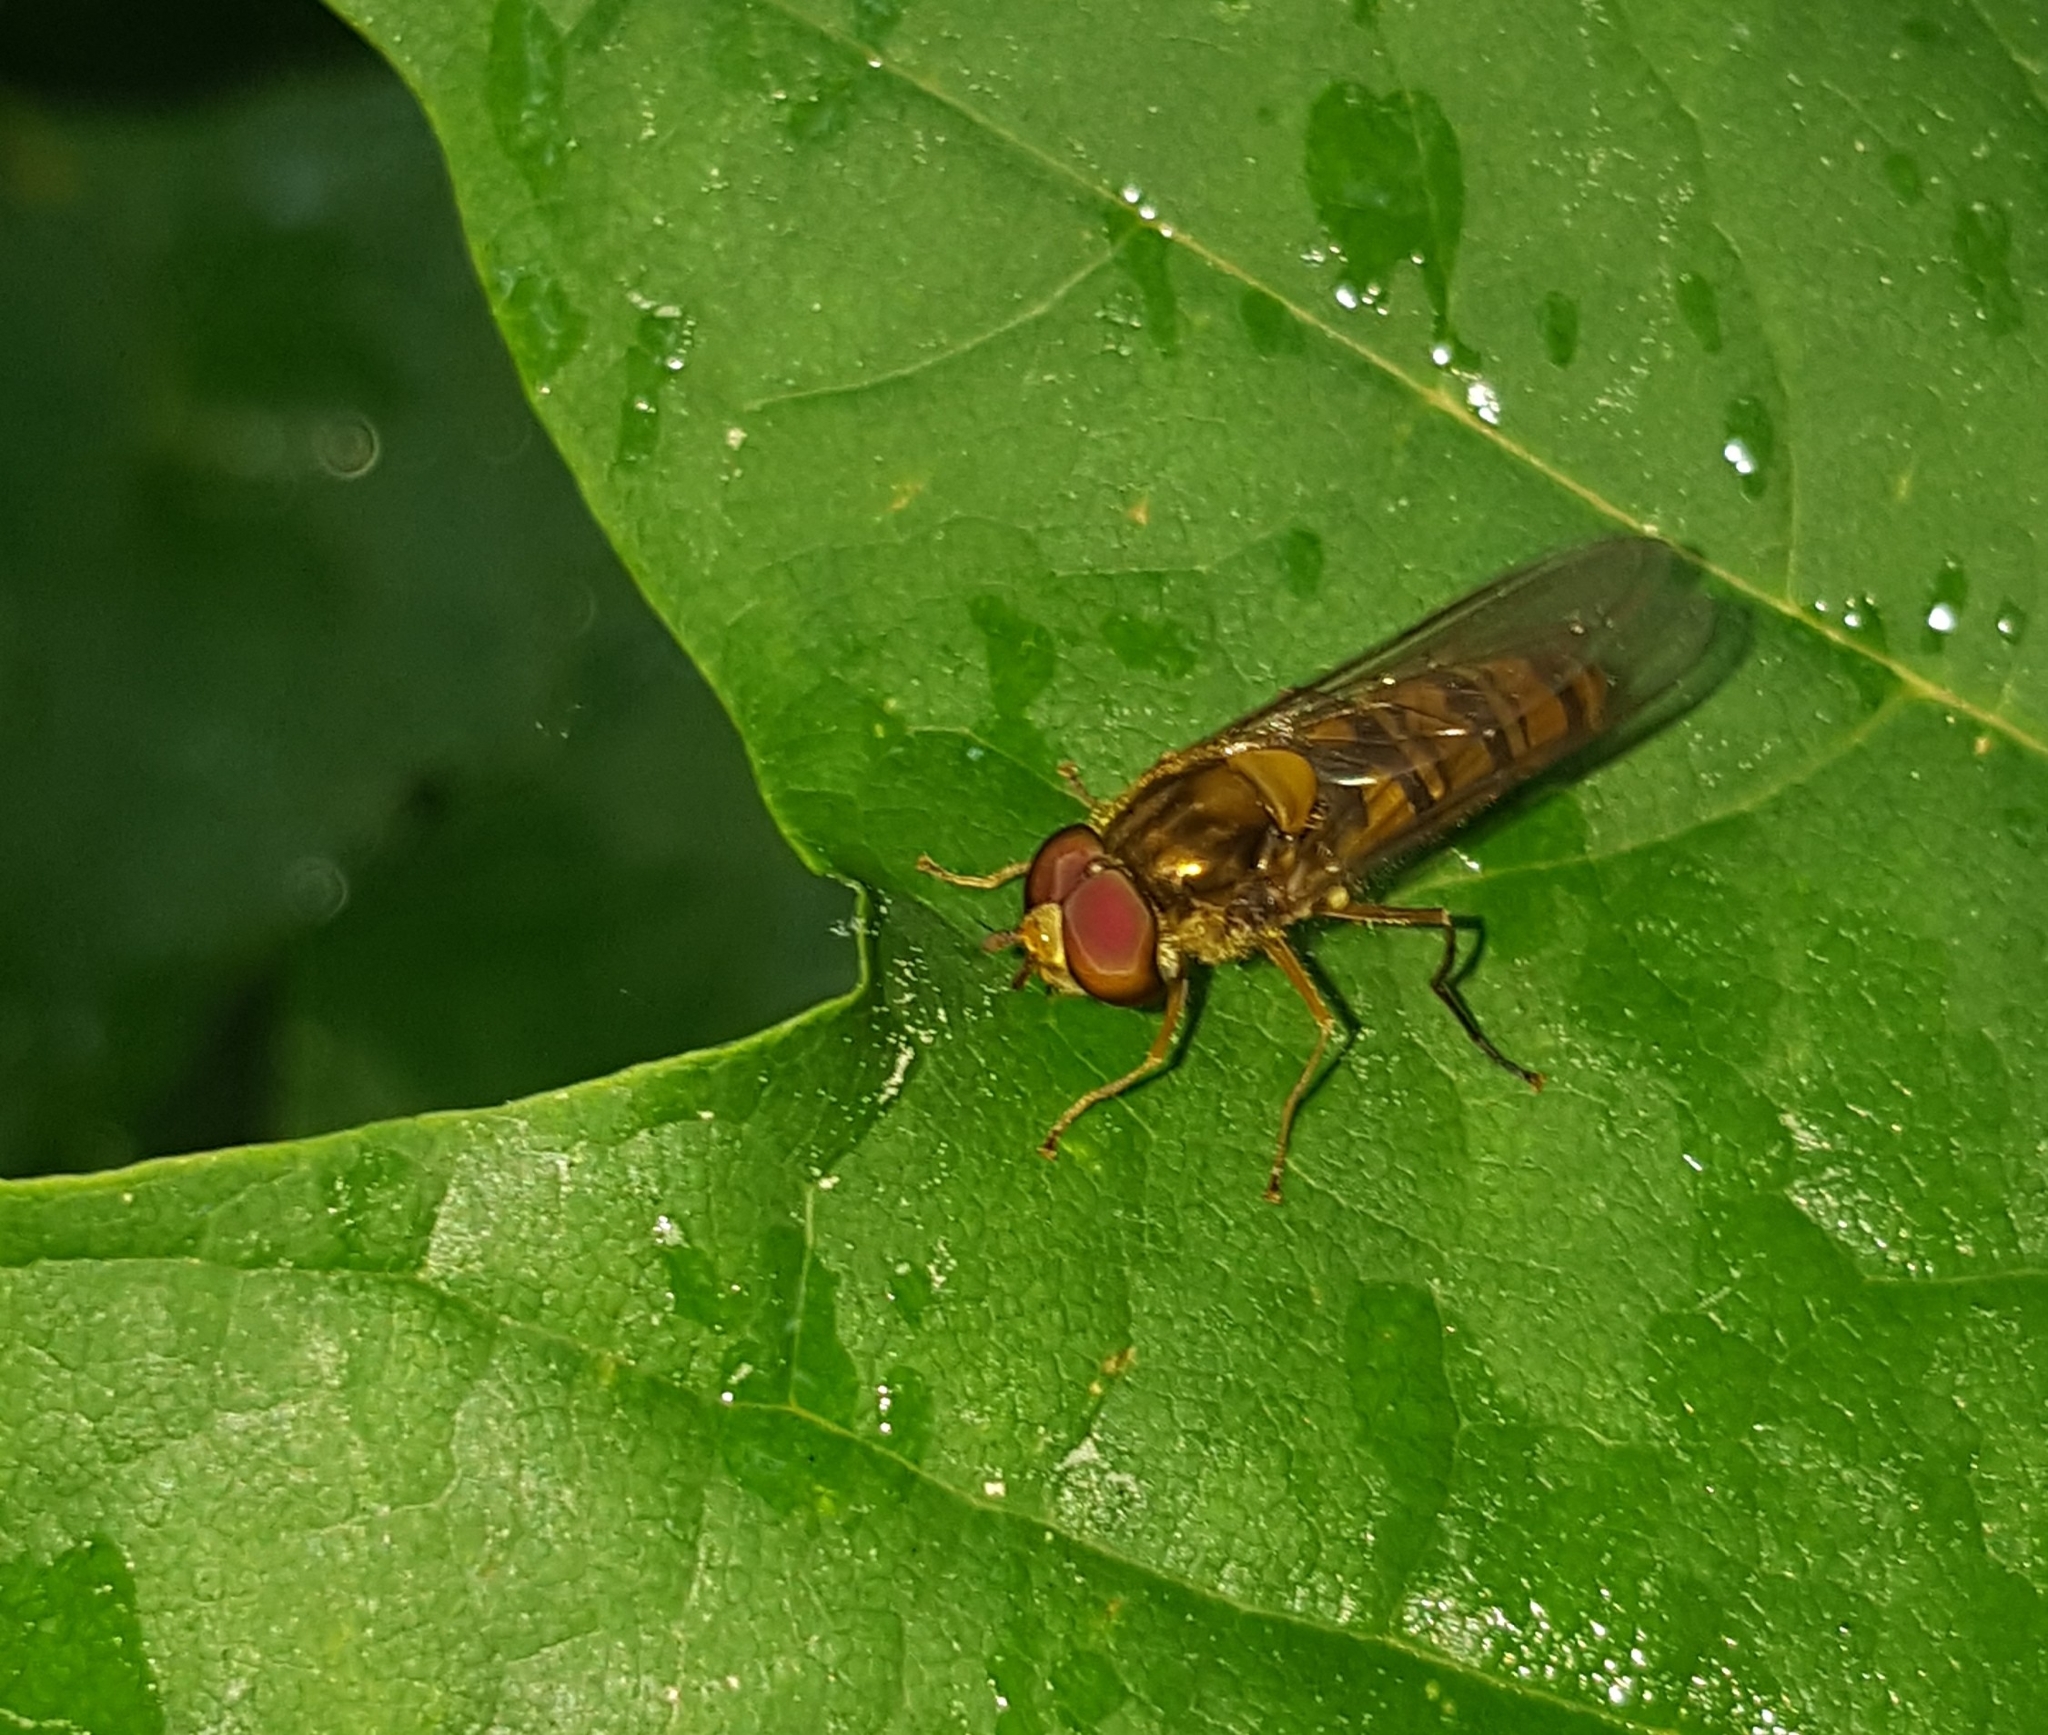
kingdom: Animalia
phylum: Arthropoda
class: Insecta
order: Diptera
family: Syrphidae
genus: Episyrphus
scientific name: Episyrphus balteatus
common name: Marmalade hoverfly
